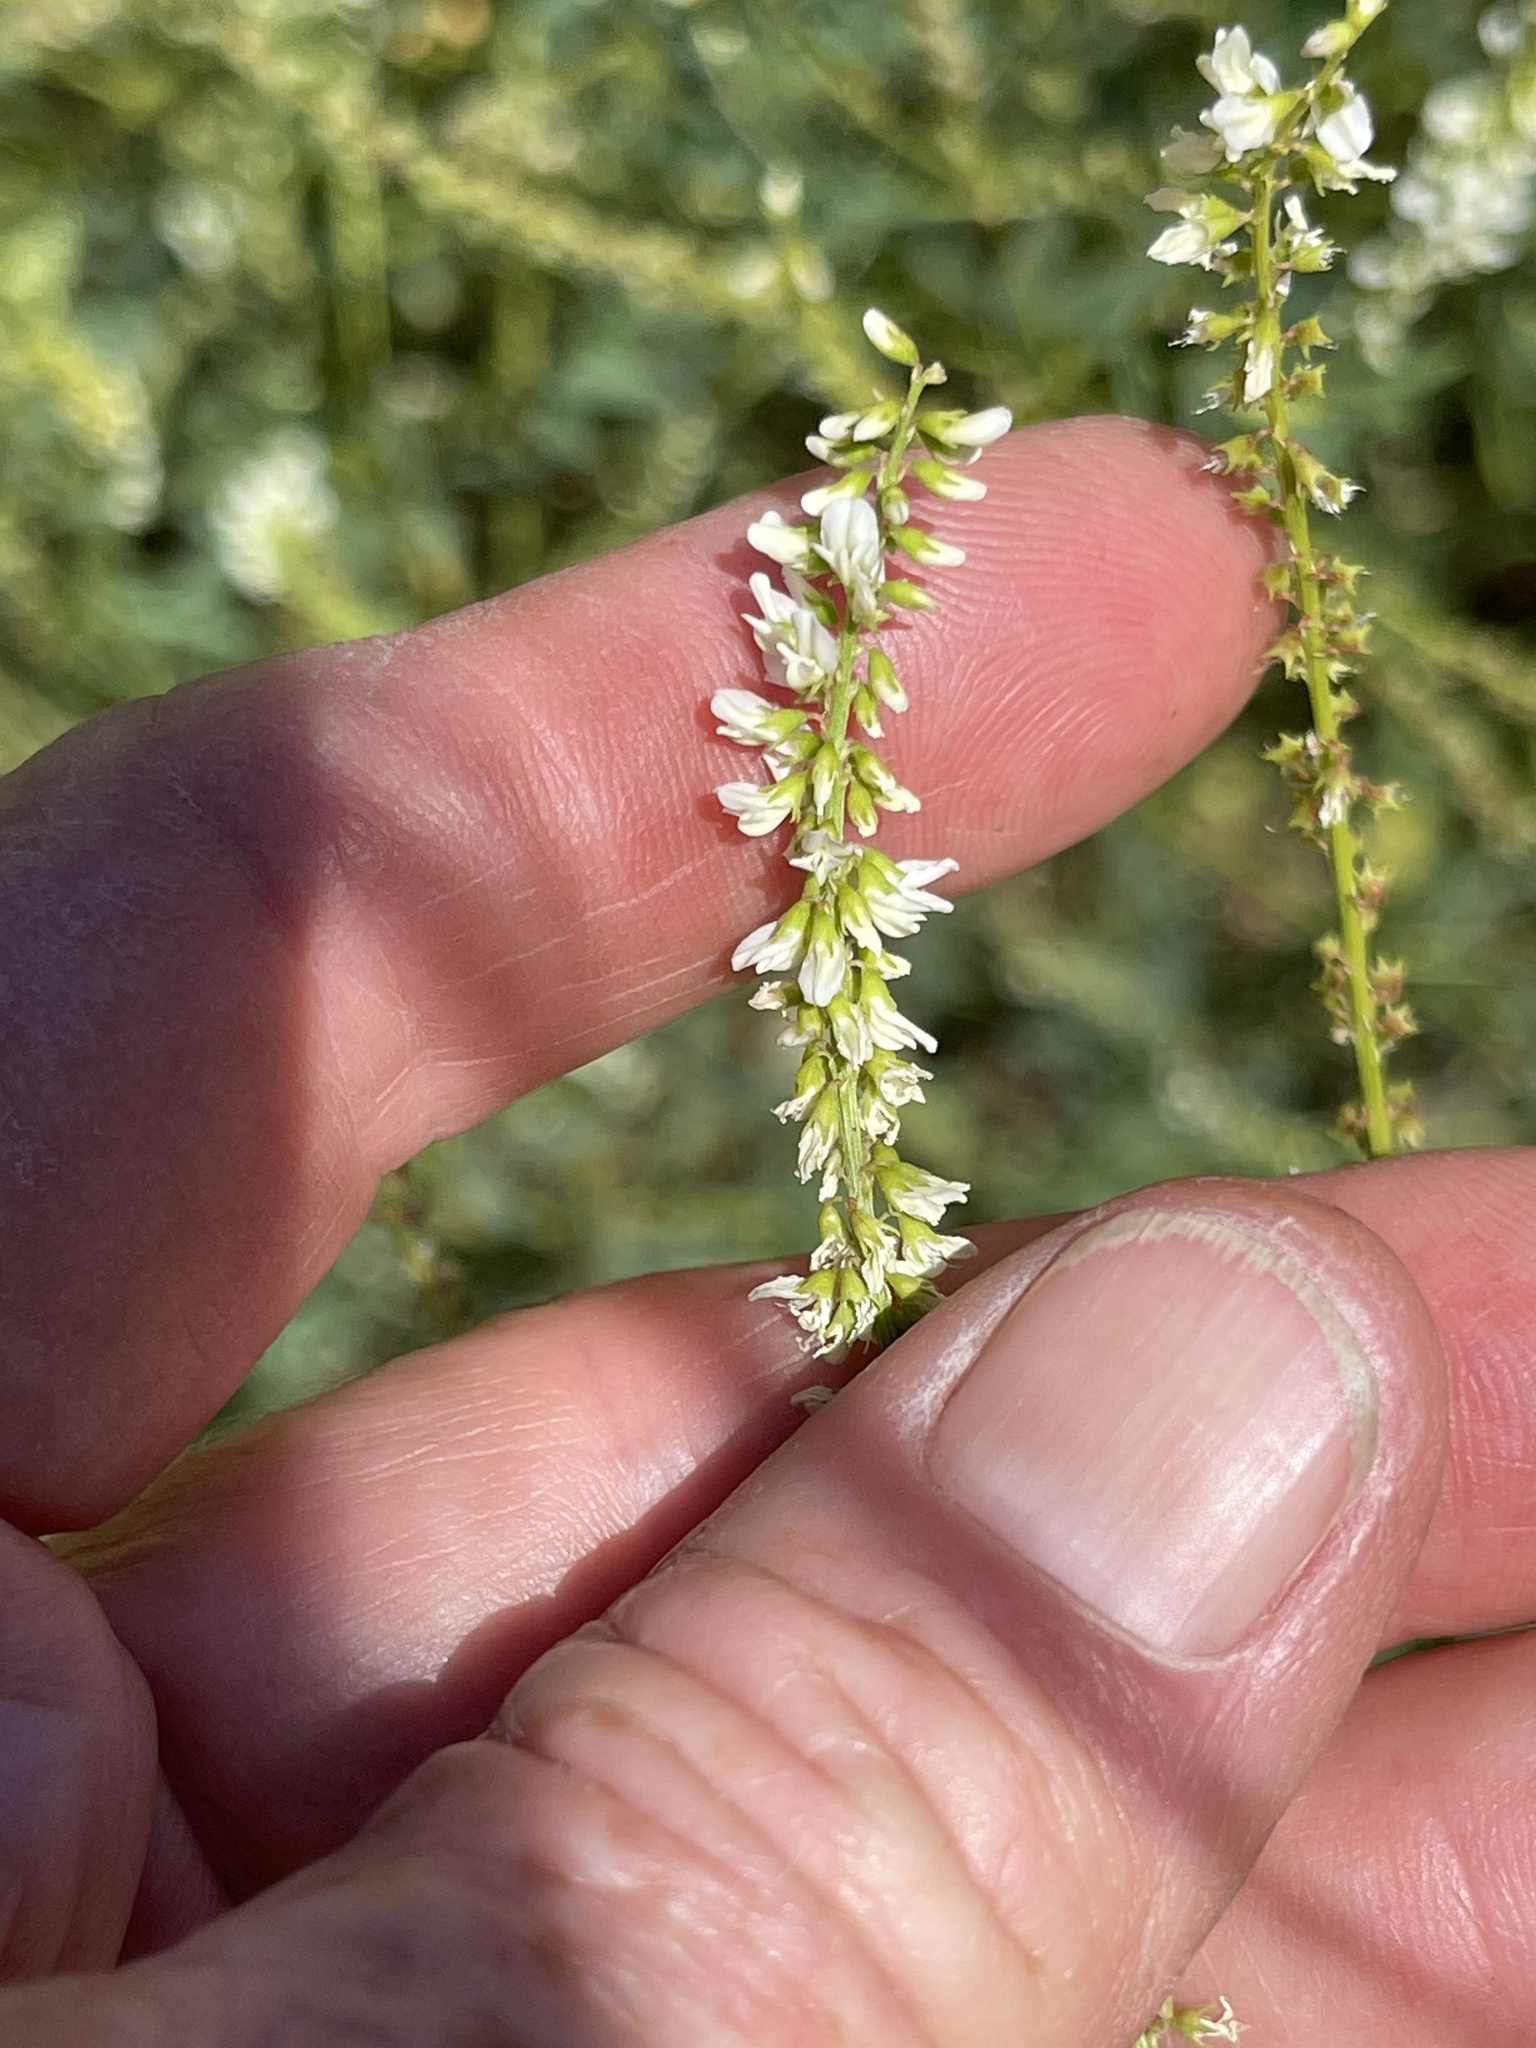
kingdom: Plantae
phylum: Tracheophyta
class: Magnoliopsida
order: Fabales
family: Fabaceae
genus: Melilotus
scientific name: Melilotus albus
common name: White melilot
